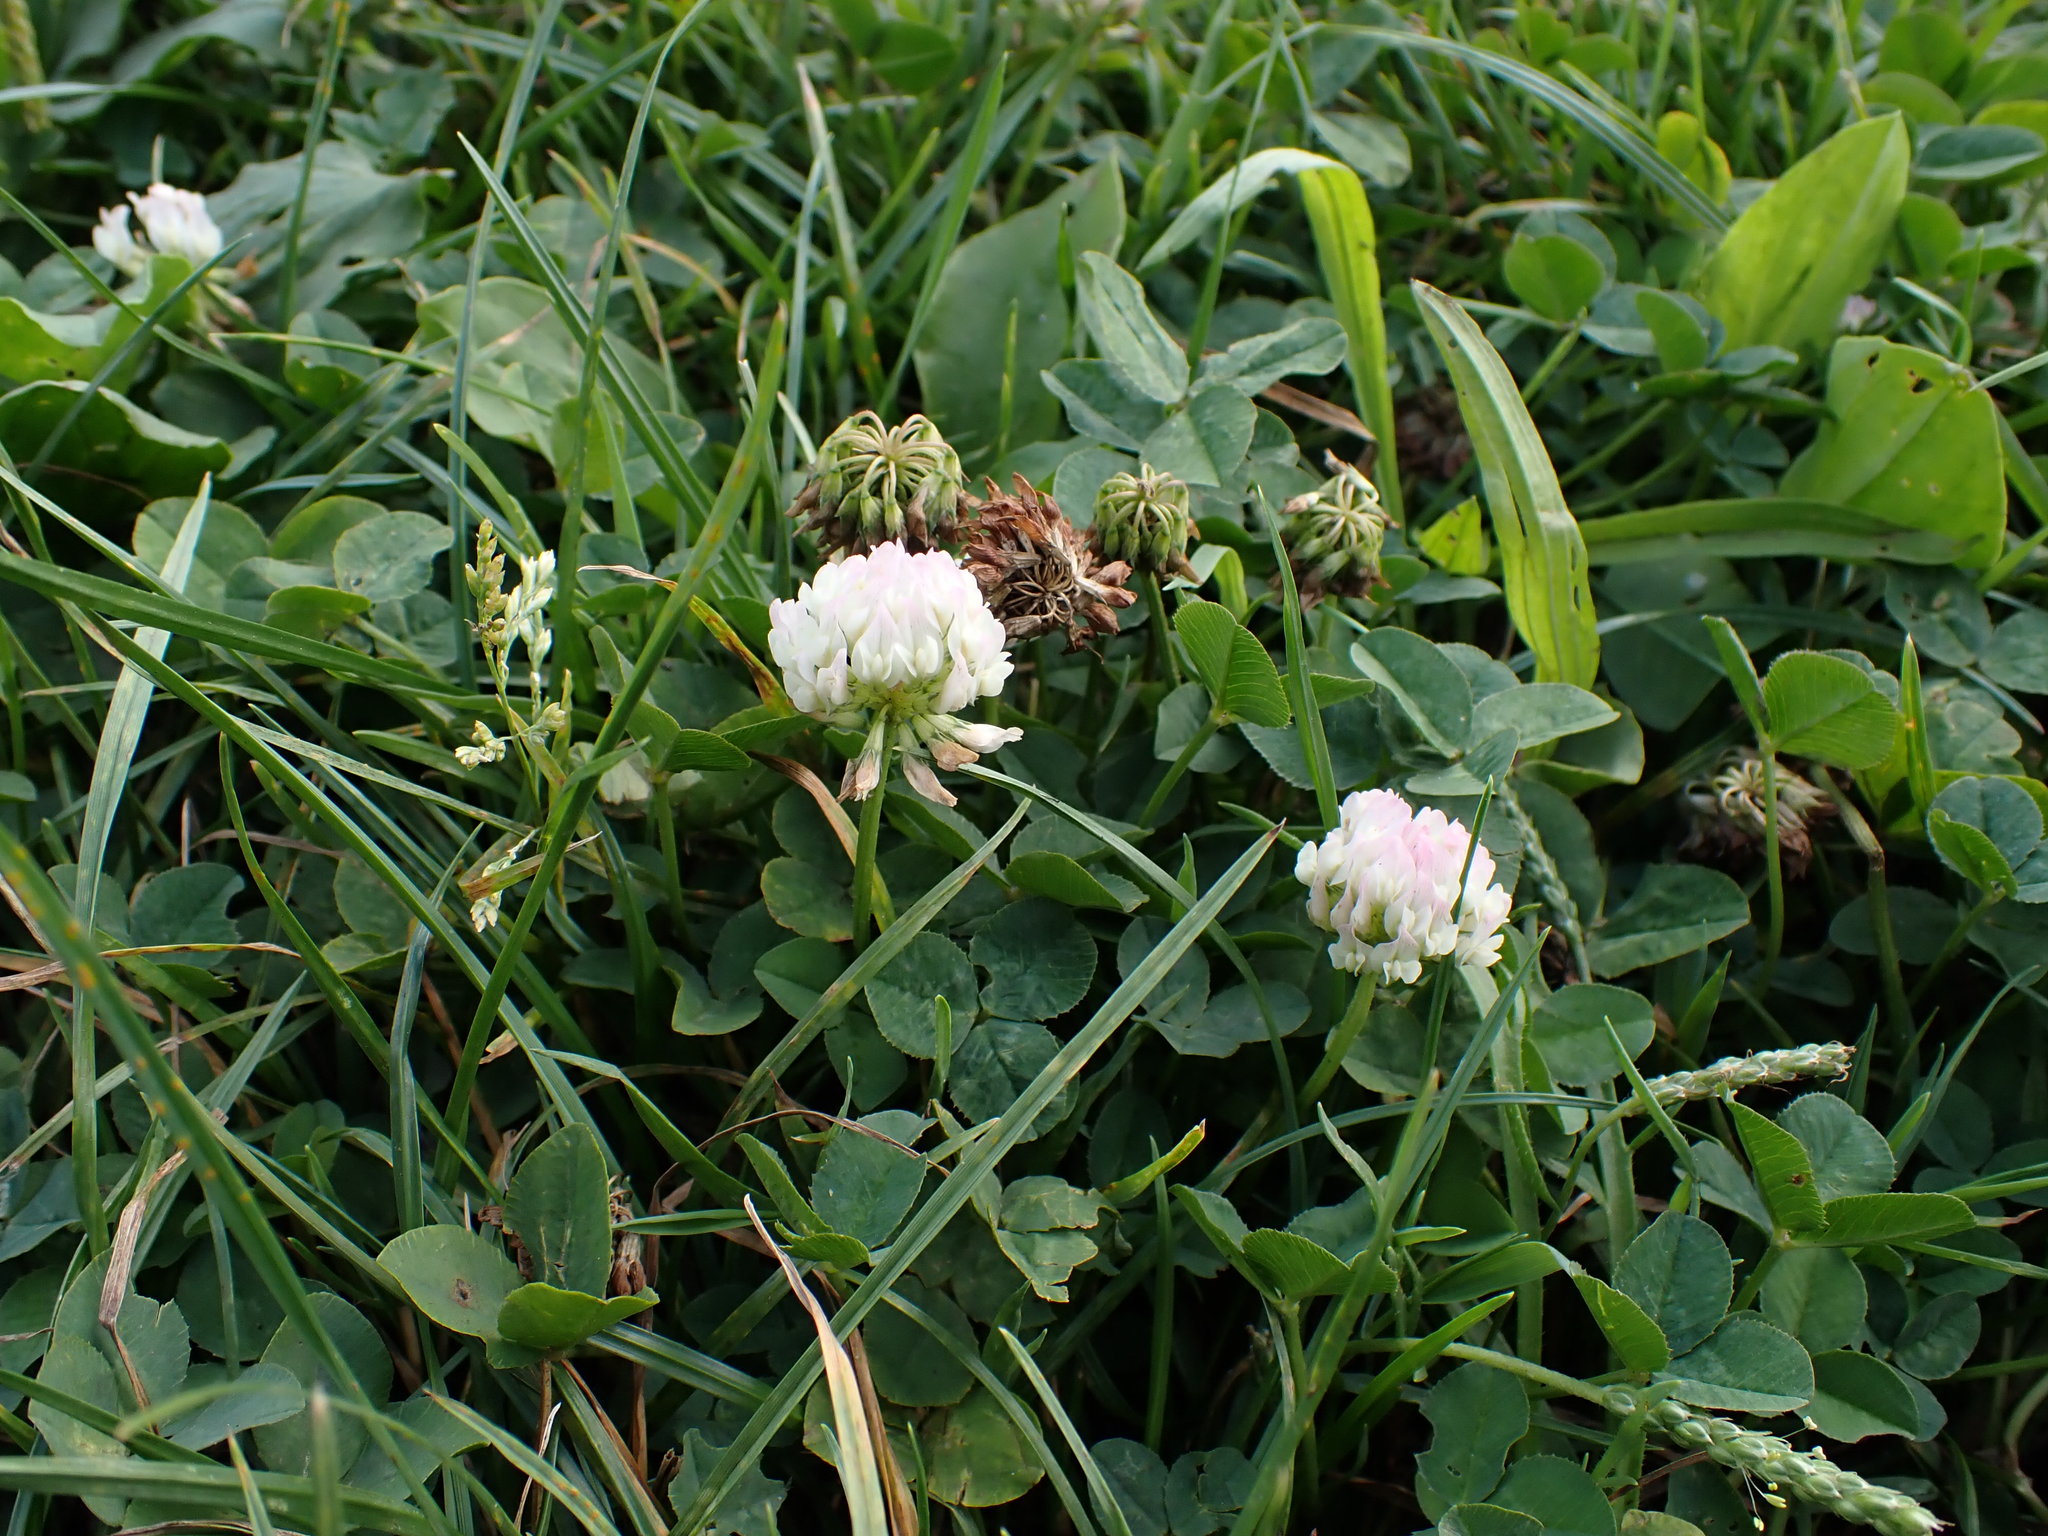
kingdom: Plantae
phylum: Tracheophyta
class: Magnoliopsida
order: Fabales
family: Fabaceae
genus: Trifolium
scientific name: Trifolium repens
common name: White clover
